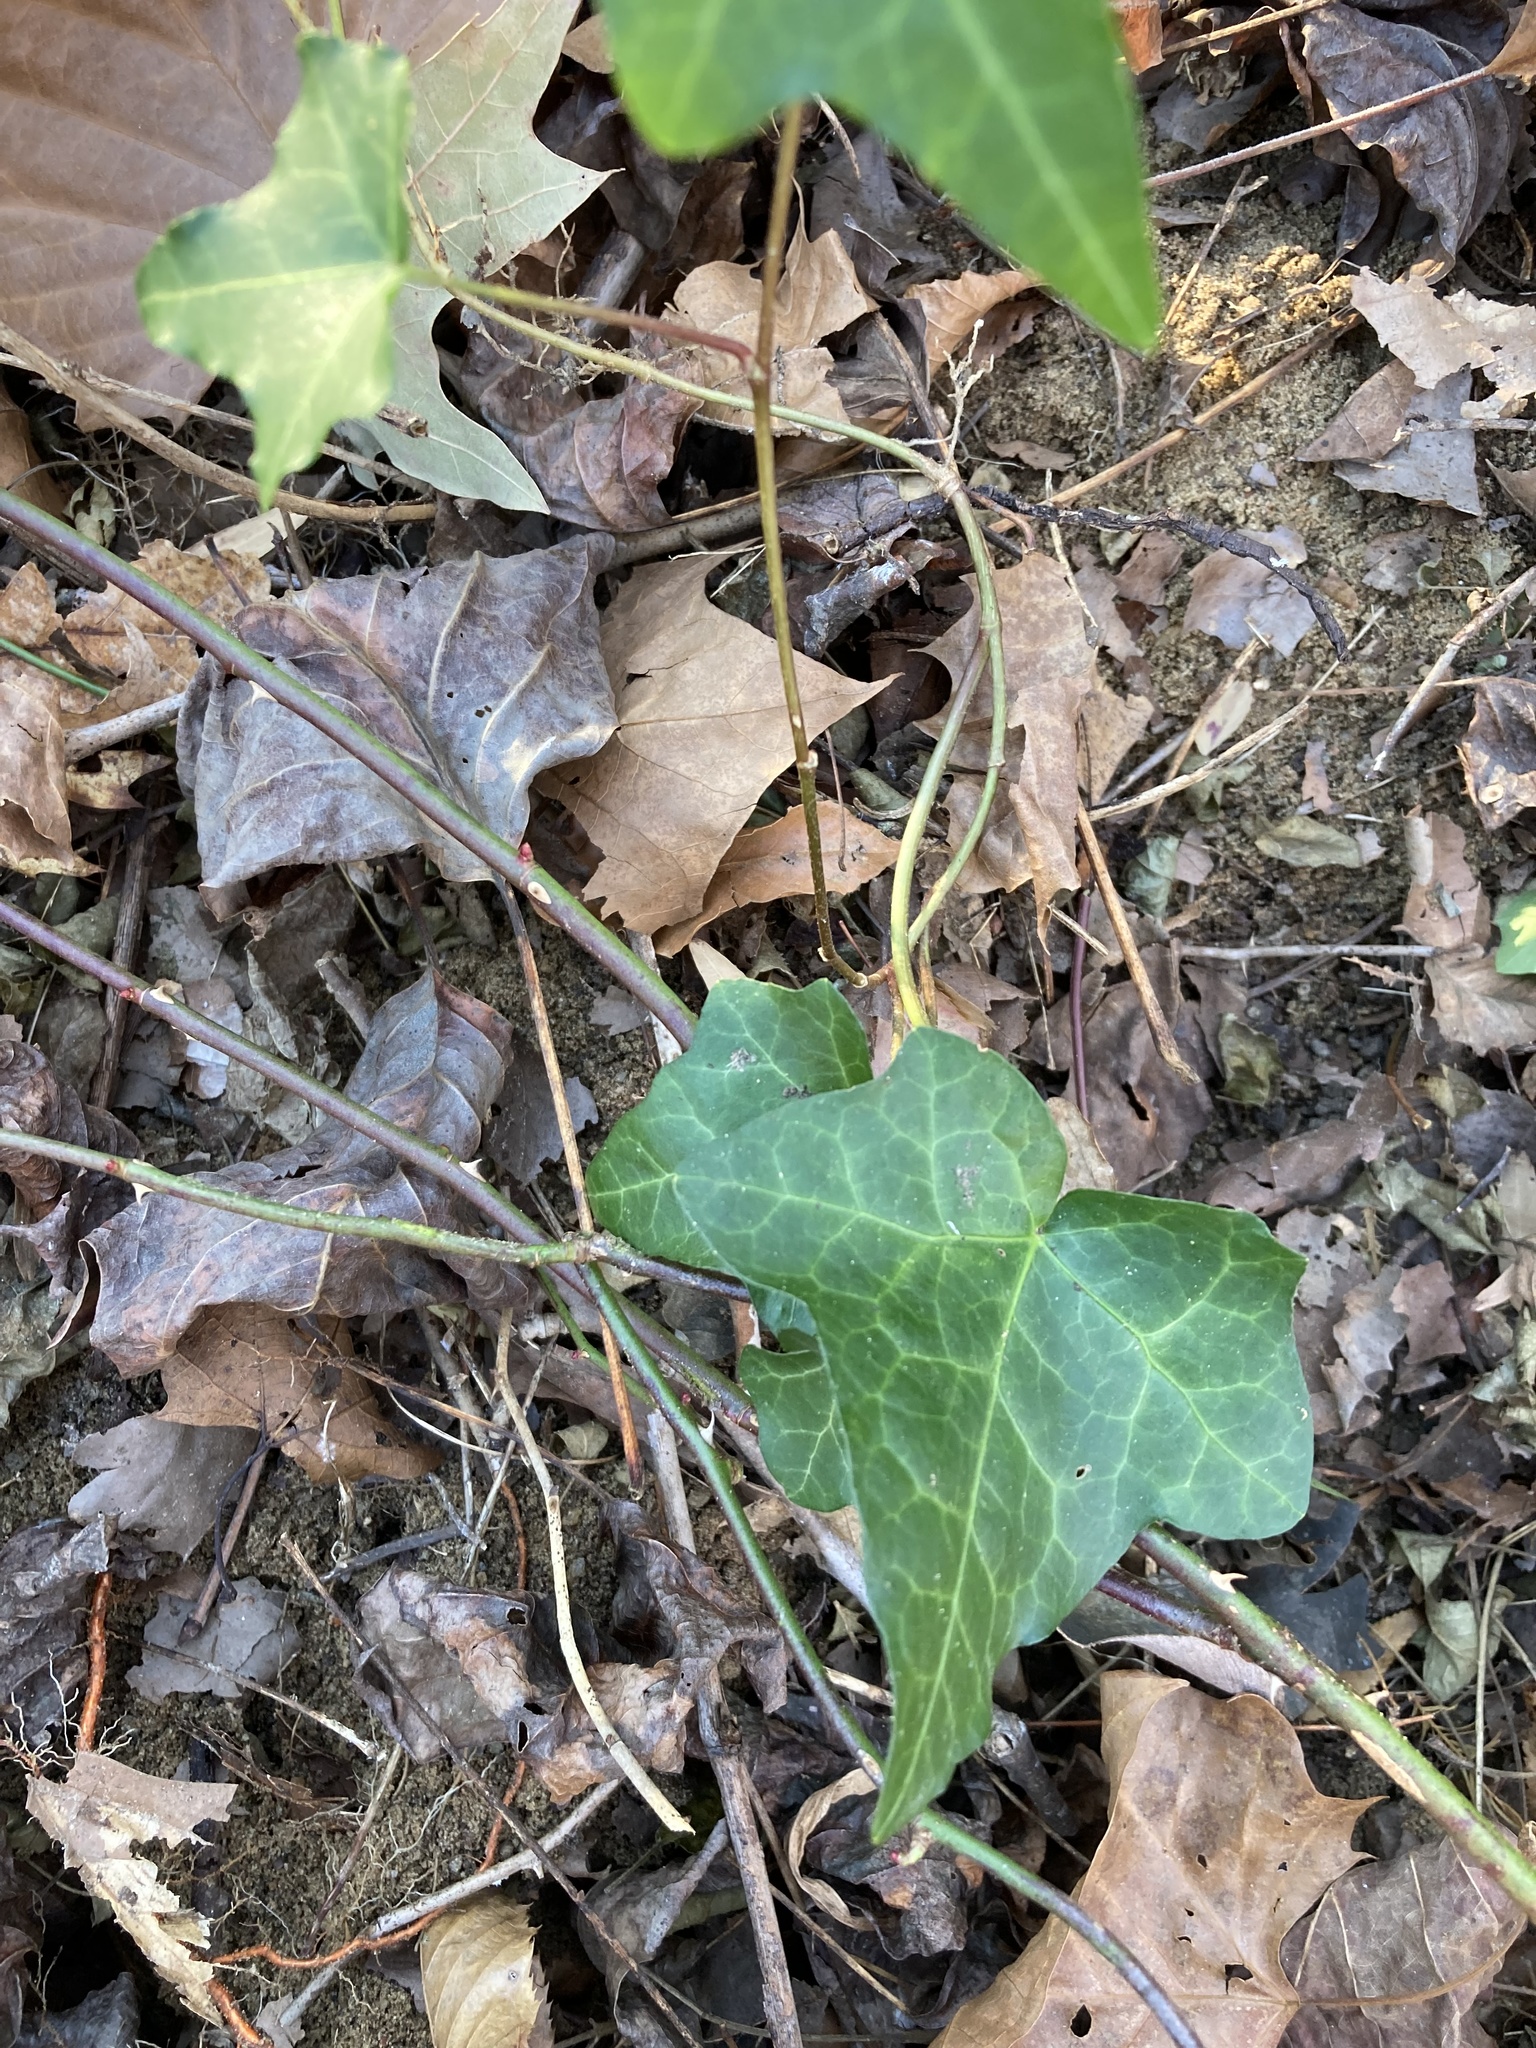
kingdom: Plantae
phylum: Tracheophyta
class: Magnoliopsida
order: Apiales
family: Araliaceae
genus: Hedera
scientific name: Hedera helix
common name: Ivy
